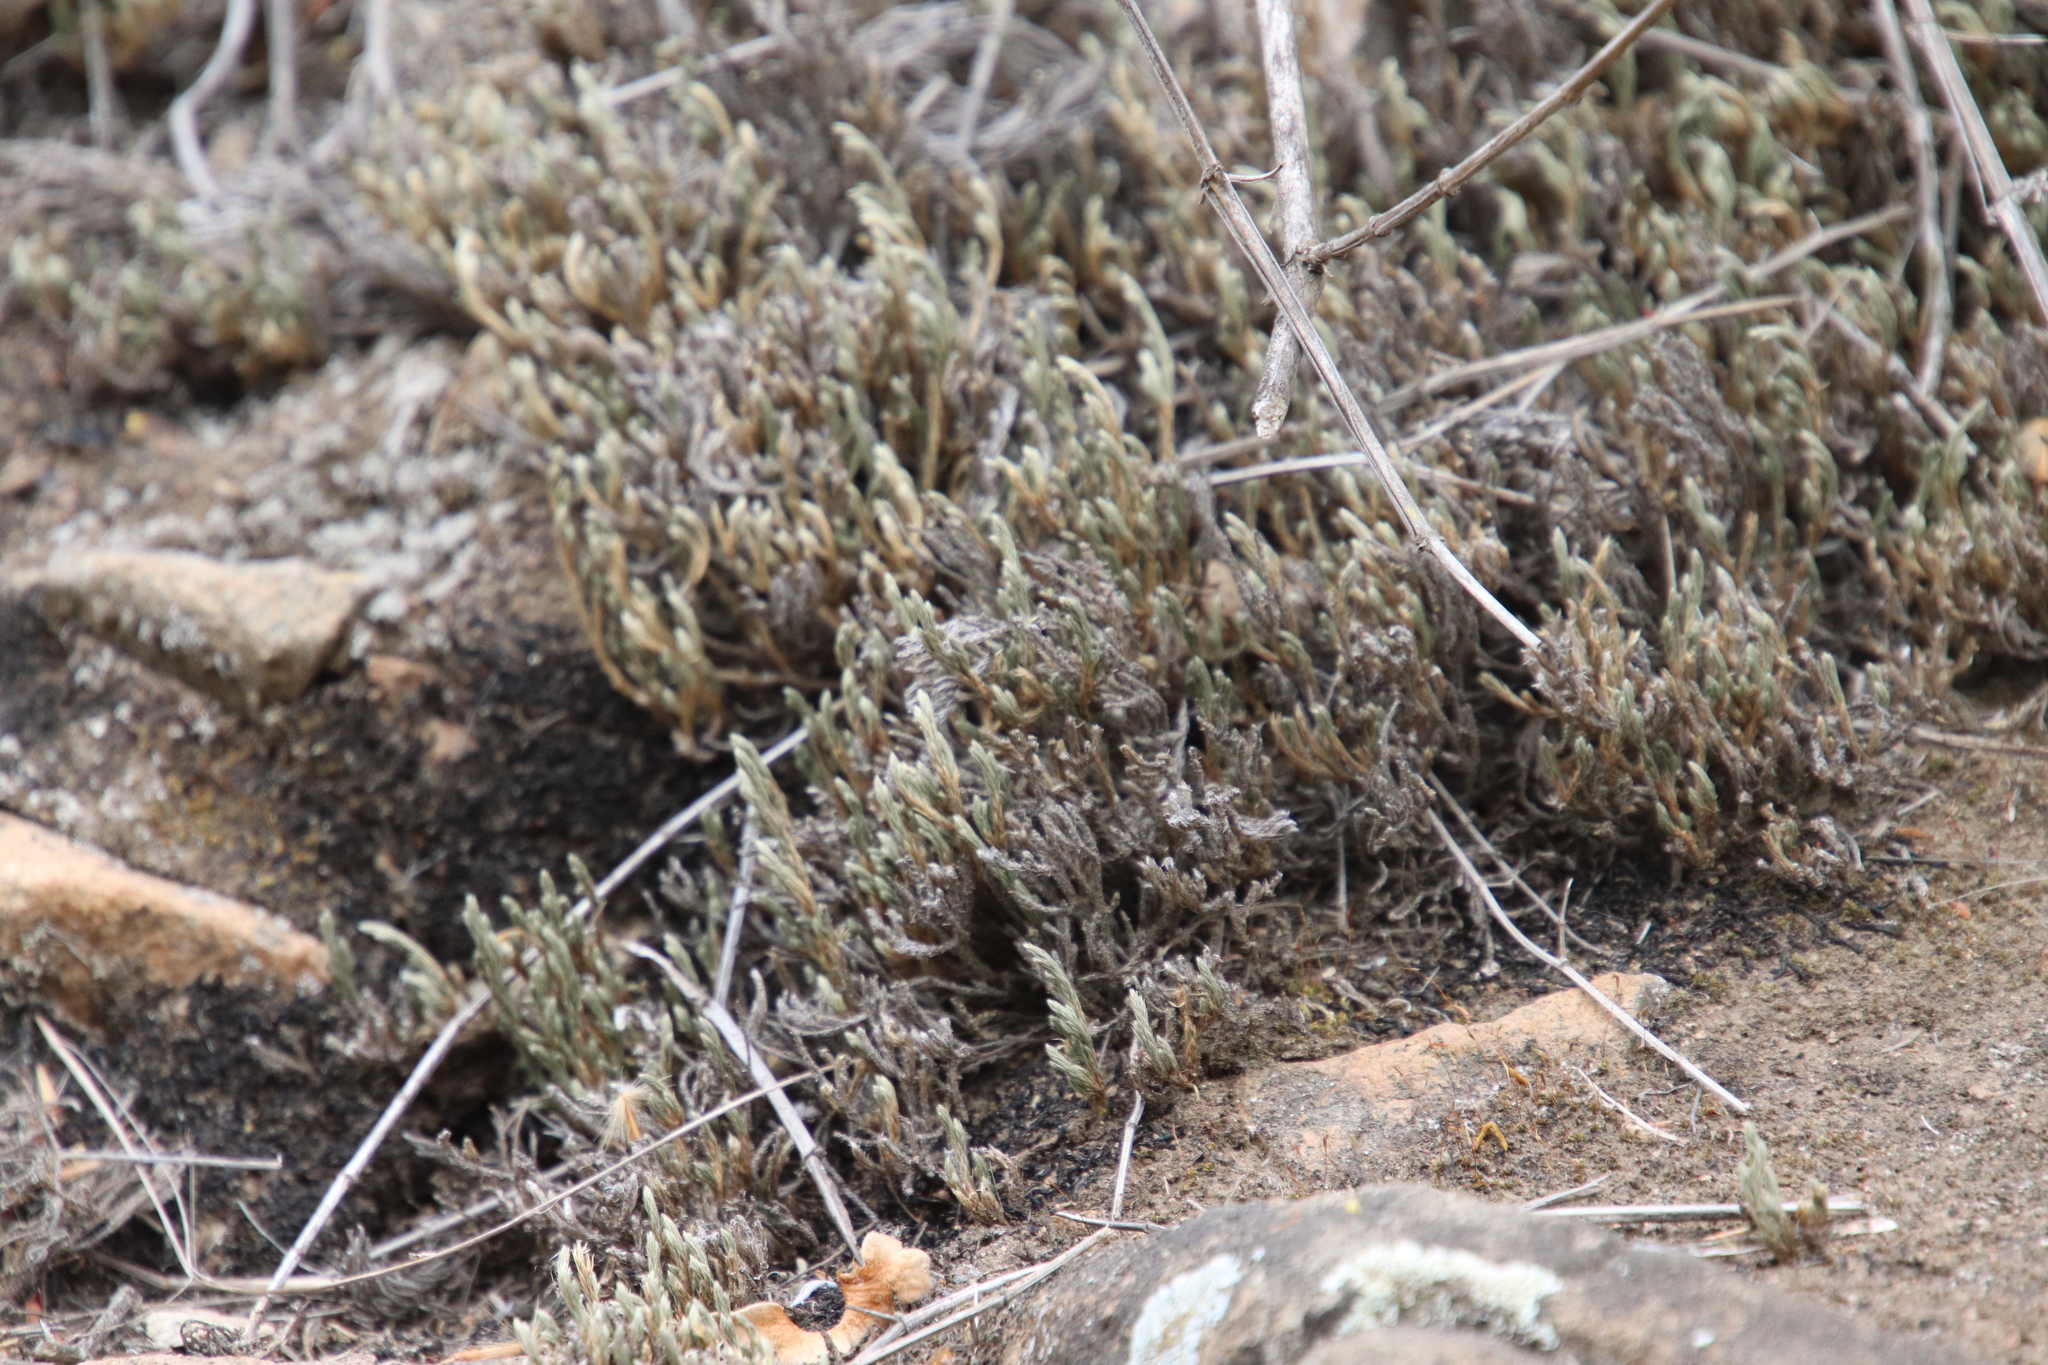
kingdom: Plantae
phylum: Tracheophyta
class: Lycopodiopsida
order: Selaginellales
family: Selaginellaceae
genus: Selaginella
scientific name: Selaginella bigelovii
